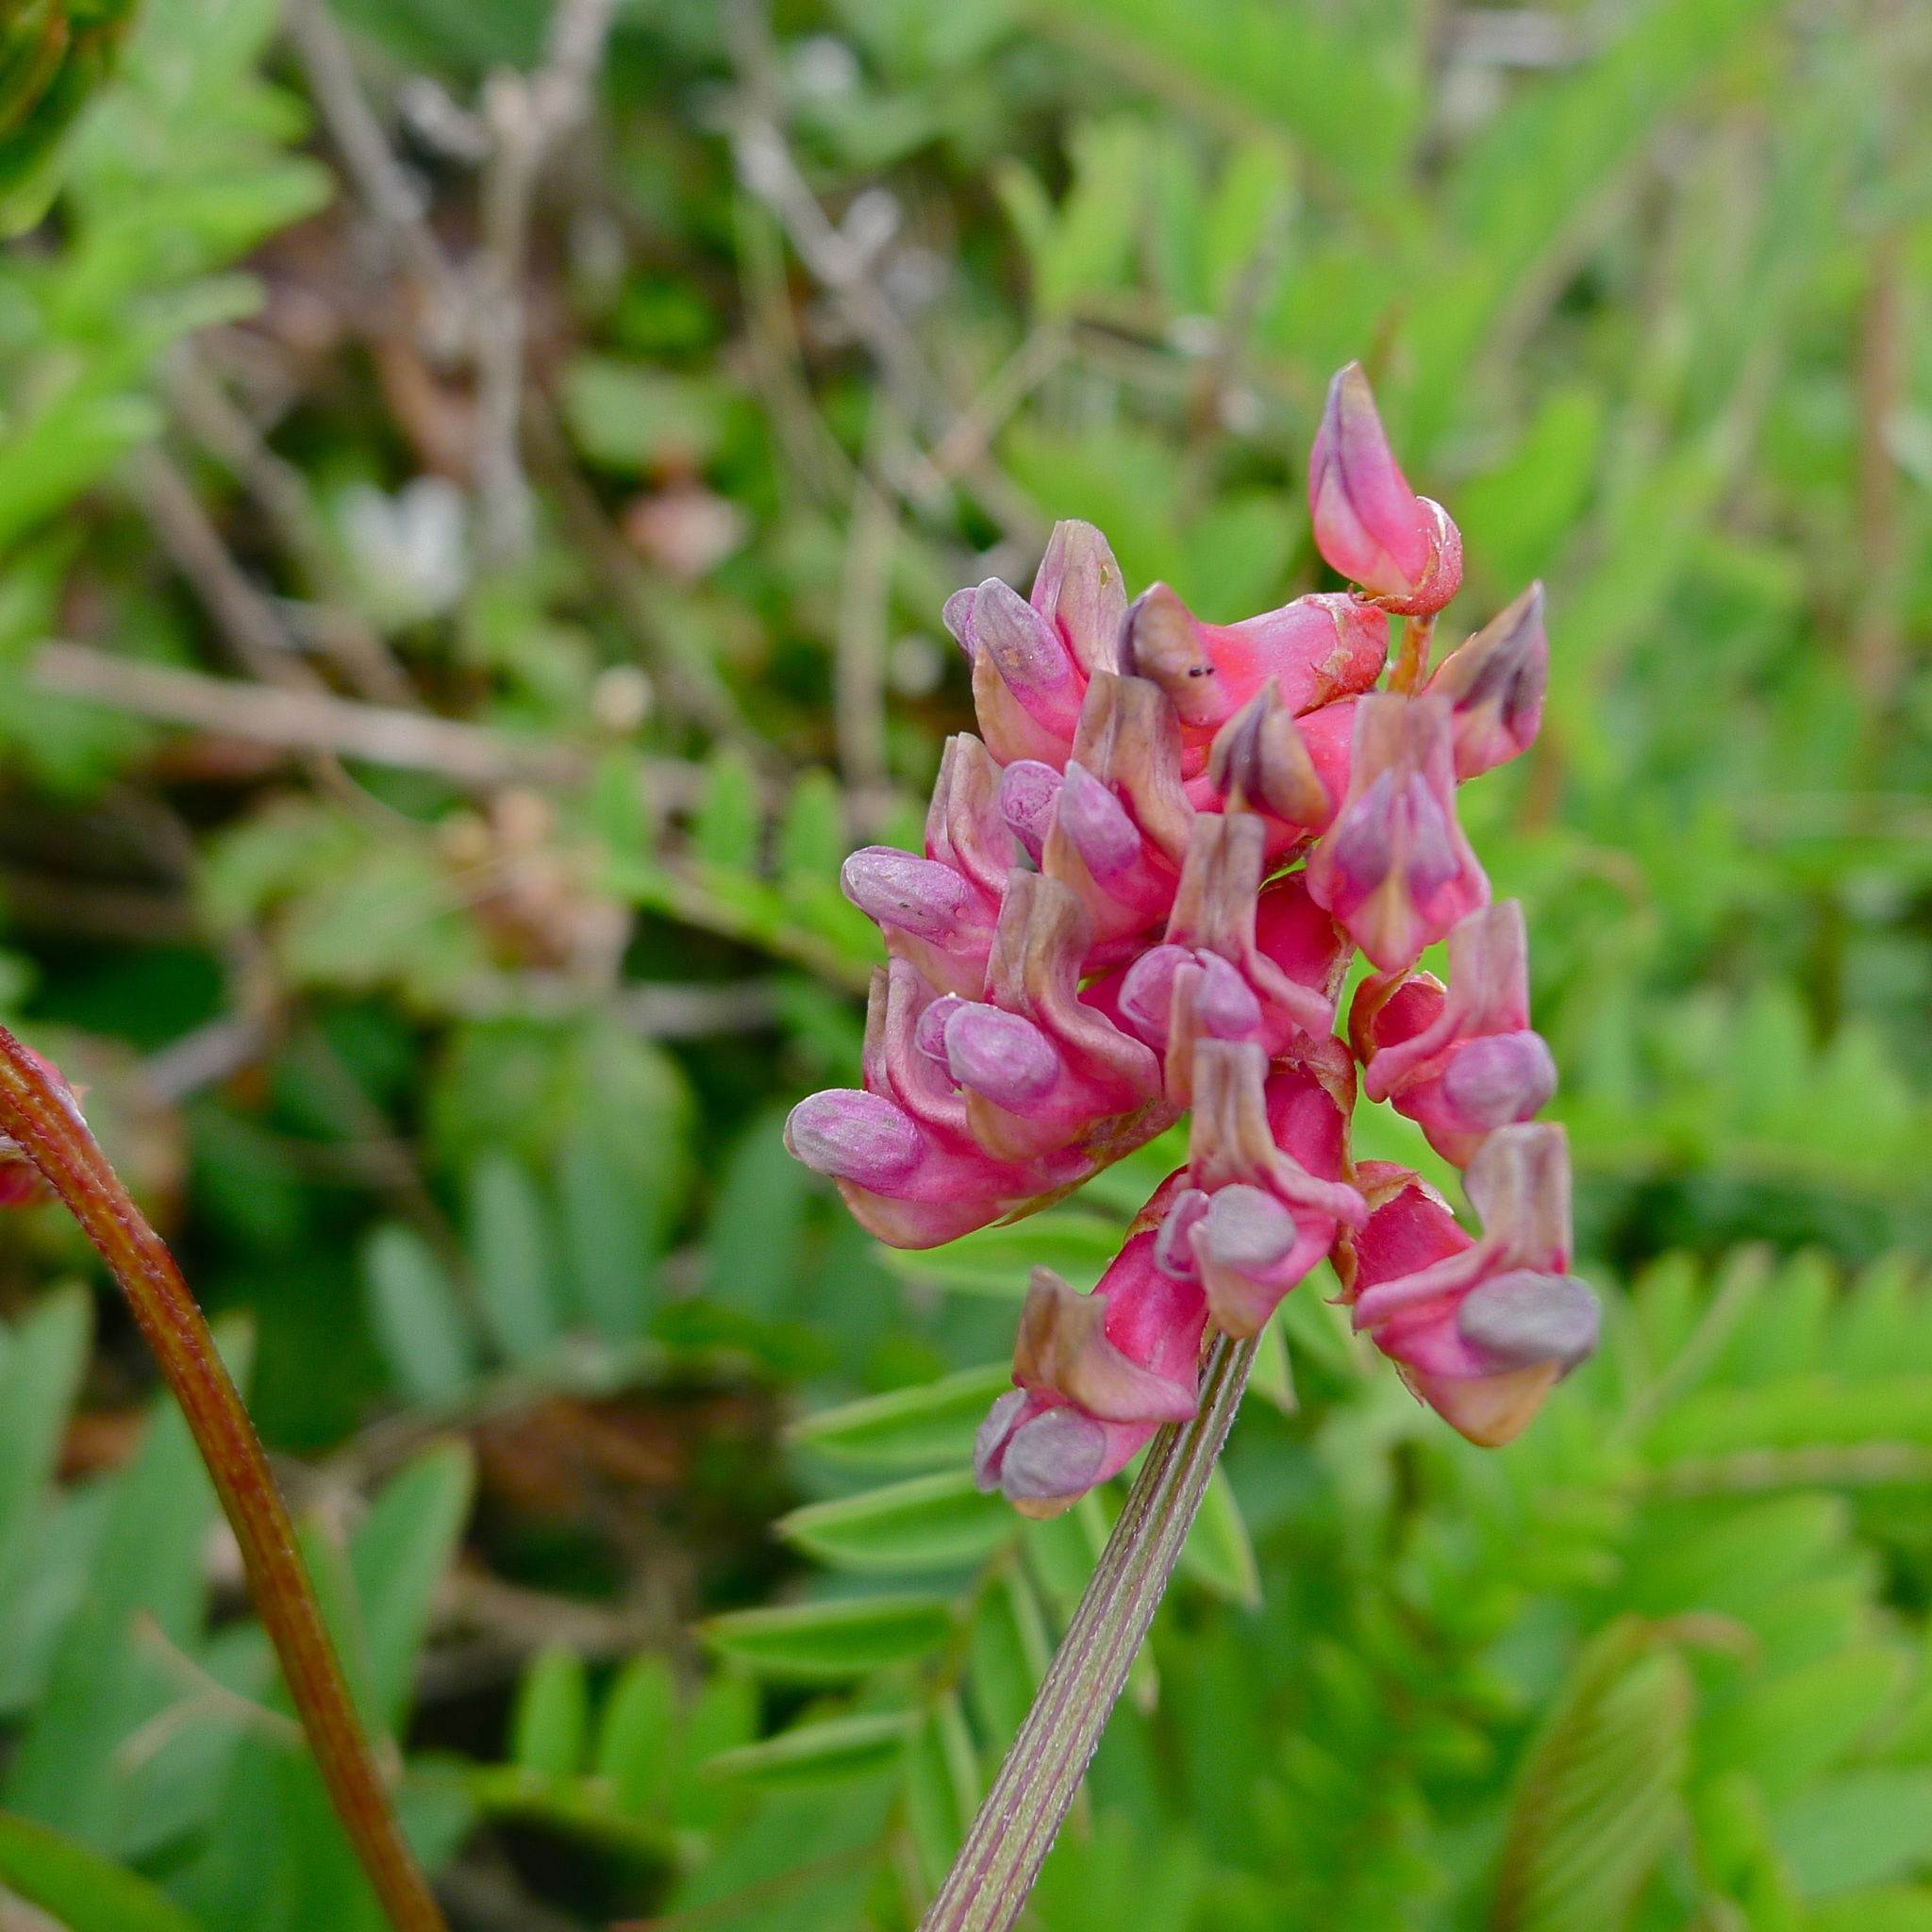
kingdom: Plantae
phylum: Tracheophyta
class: Magnoliopsida
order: Fabales
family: Fabaceae
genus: Vicia
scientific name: Vicia
